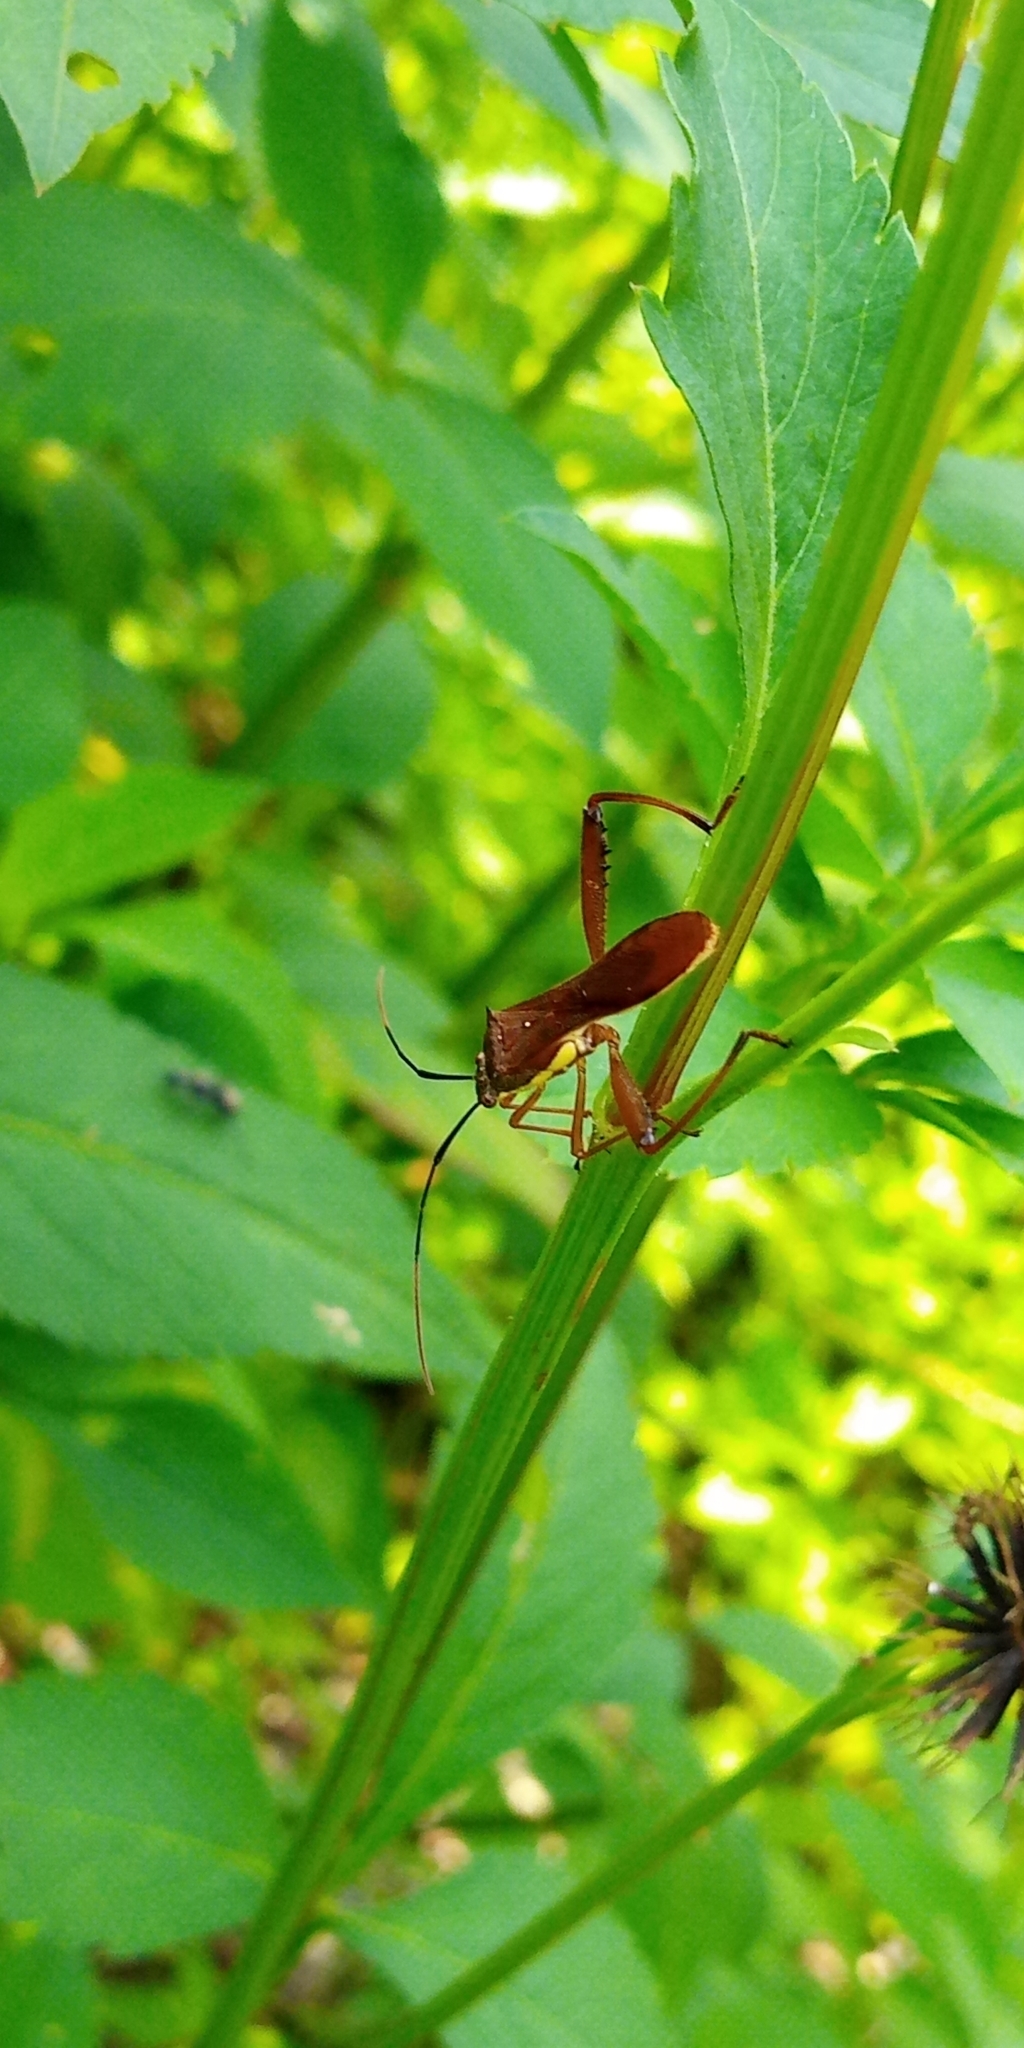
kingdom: Animalia
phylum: Arthropoda
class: Insecta
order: Hemiptera
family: Alydidae
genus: Riptortus
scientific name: Riptortus linearis
